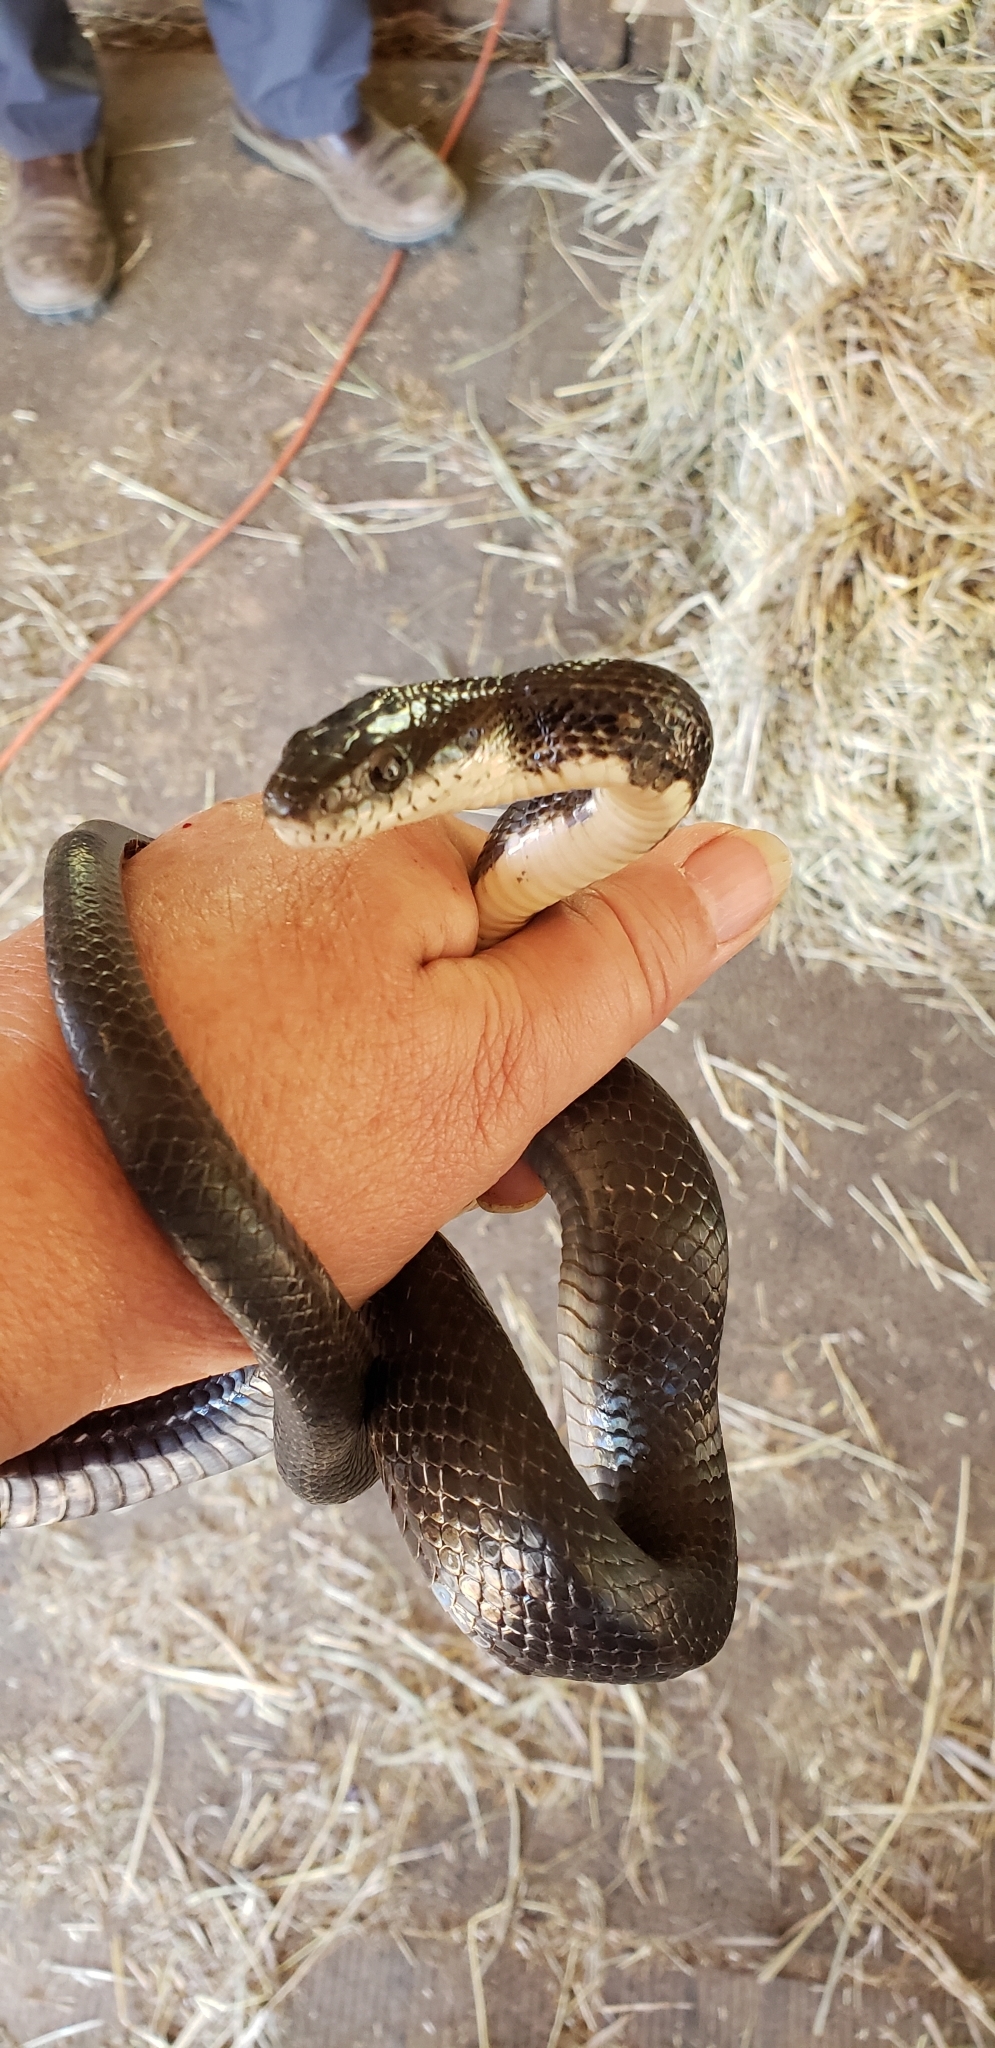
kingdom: Animalia
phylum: Chordata
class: Squamata
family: Colubridae
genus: Pantherophis
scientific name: Pantherophis alleghaniensis
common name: Eastern rat snake
